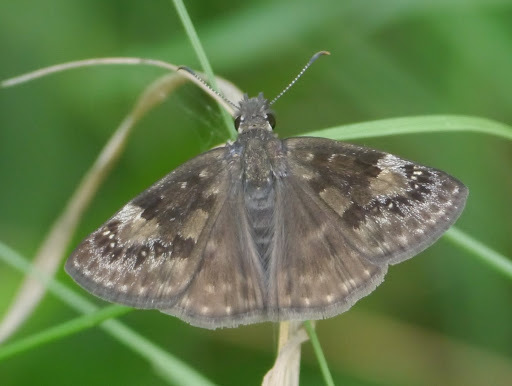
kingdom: Animalia
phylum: Arthropoda
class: Insecta
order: Lepidoptera
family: Hesperiidae
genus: Erynnis
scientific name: Erynnis baptisiae
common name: Wild indigo duskywing
